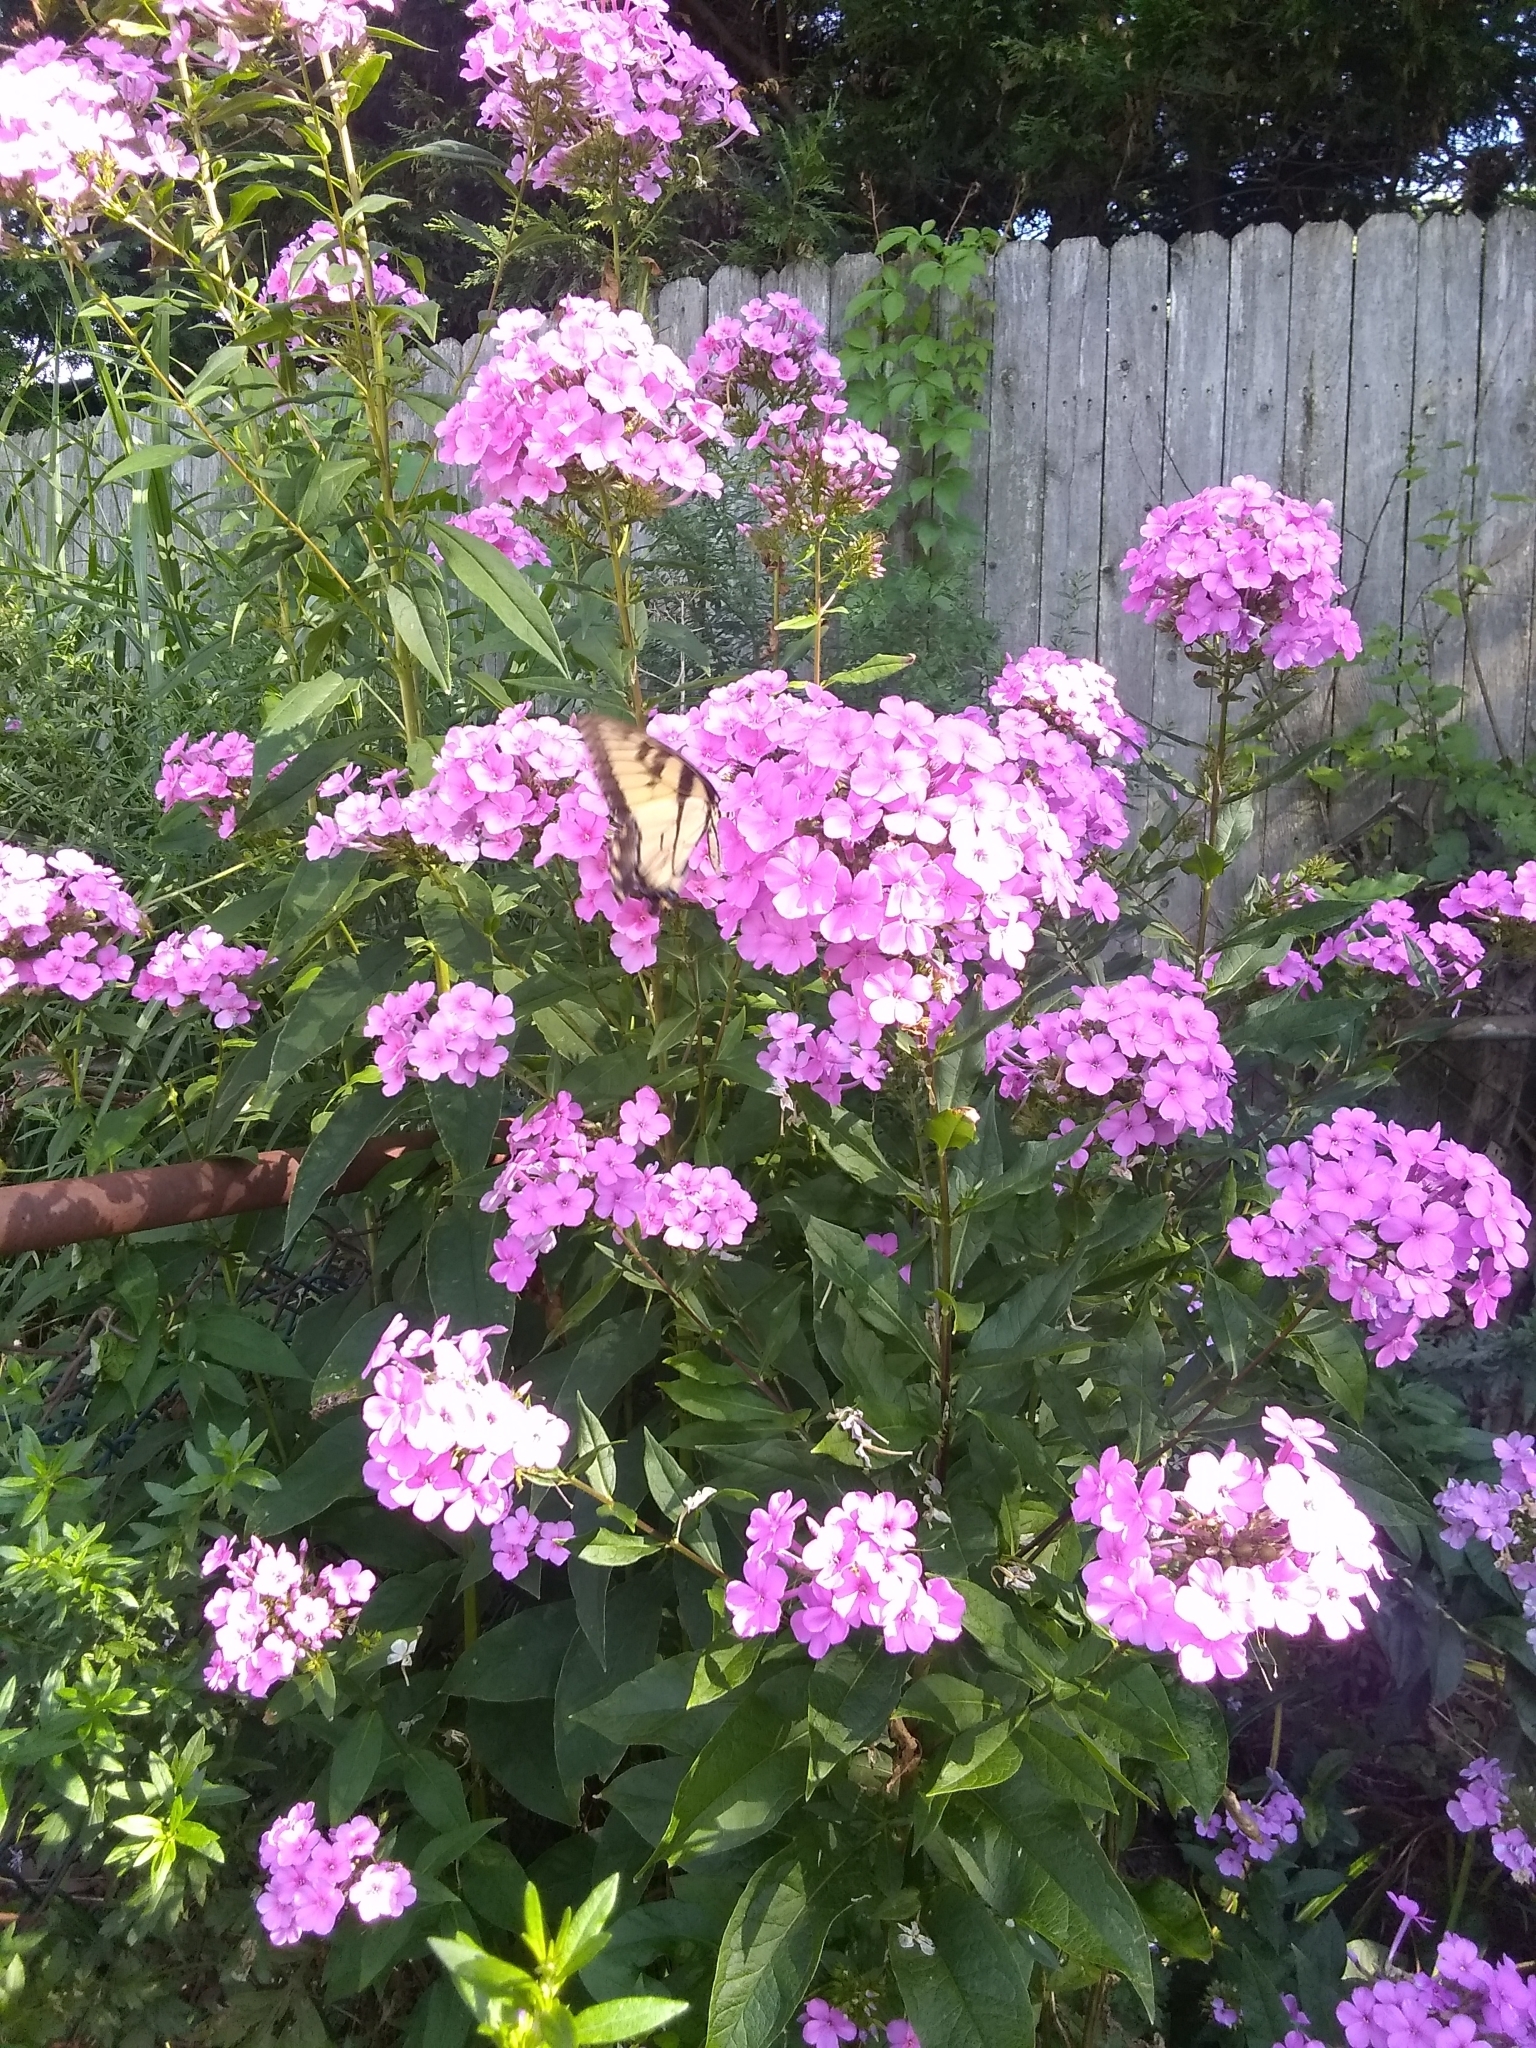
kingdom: Animalia
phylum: Arthropoda
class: Insecta
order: Lepidoptera
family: Papilionidae
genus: Papilio
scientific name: Papilio glaucus
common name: Tiger swallowtail
